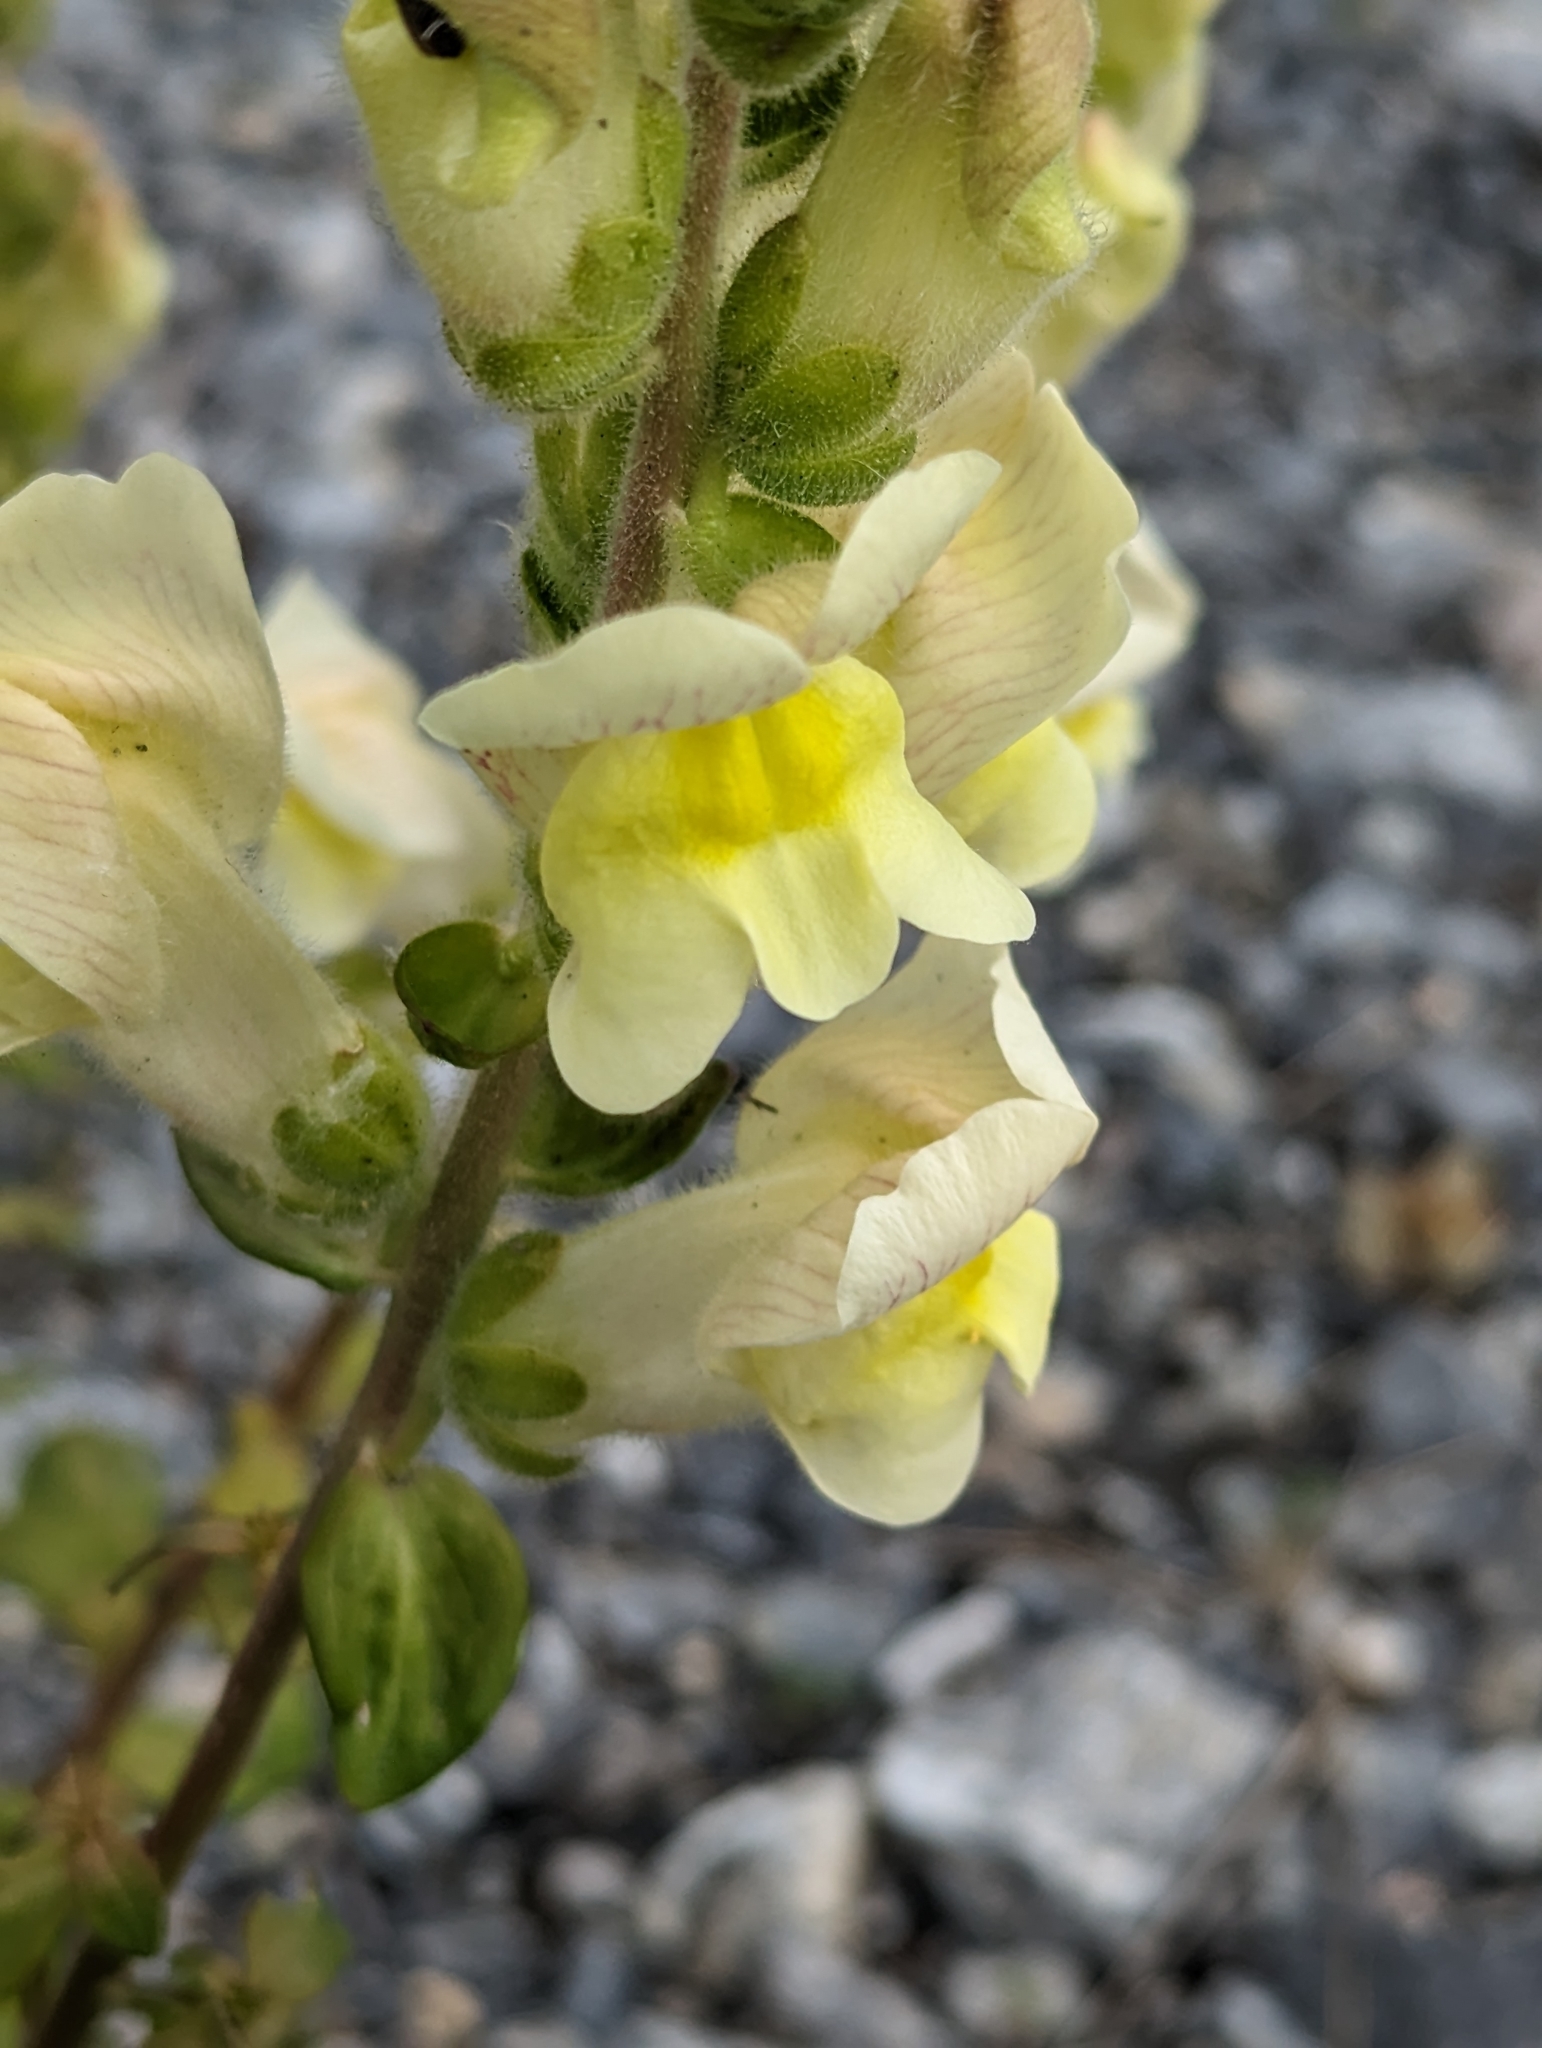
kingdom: Plantae
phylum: Tracheophyta
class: Magnoliopsida
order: Lamiales
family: Plantaginaceae
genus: Antirrhinum
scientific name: Antirrhinum latifolium
